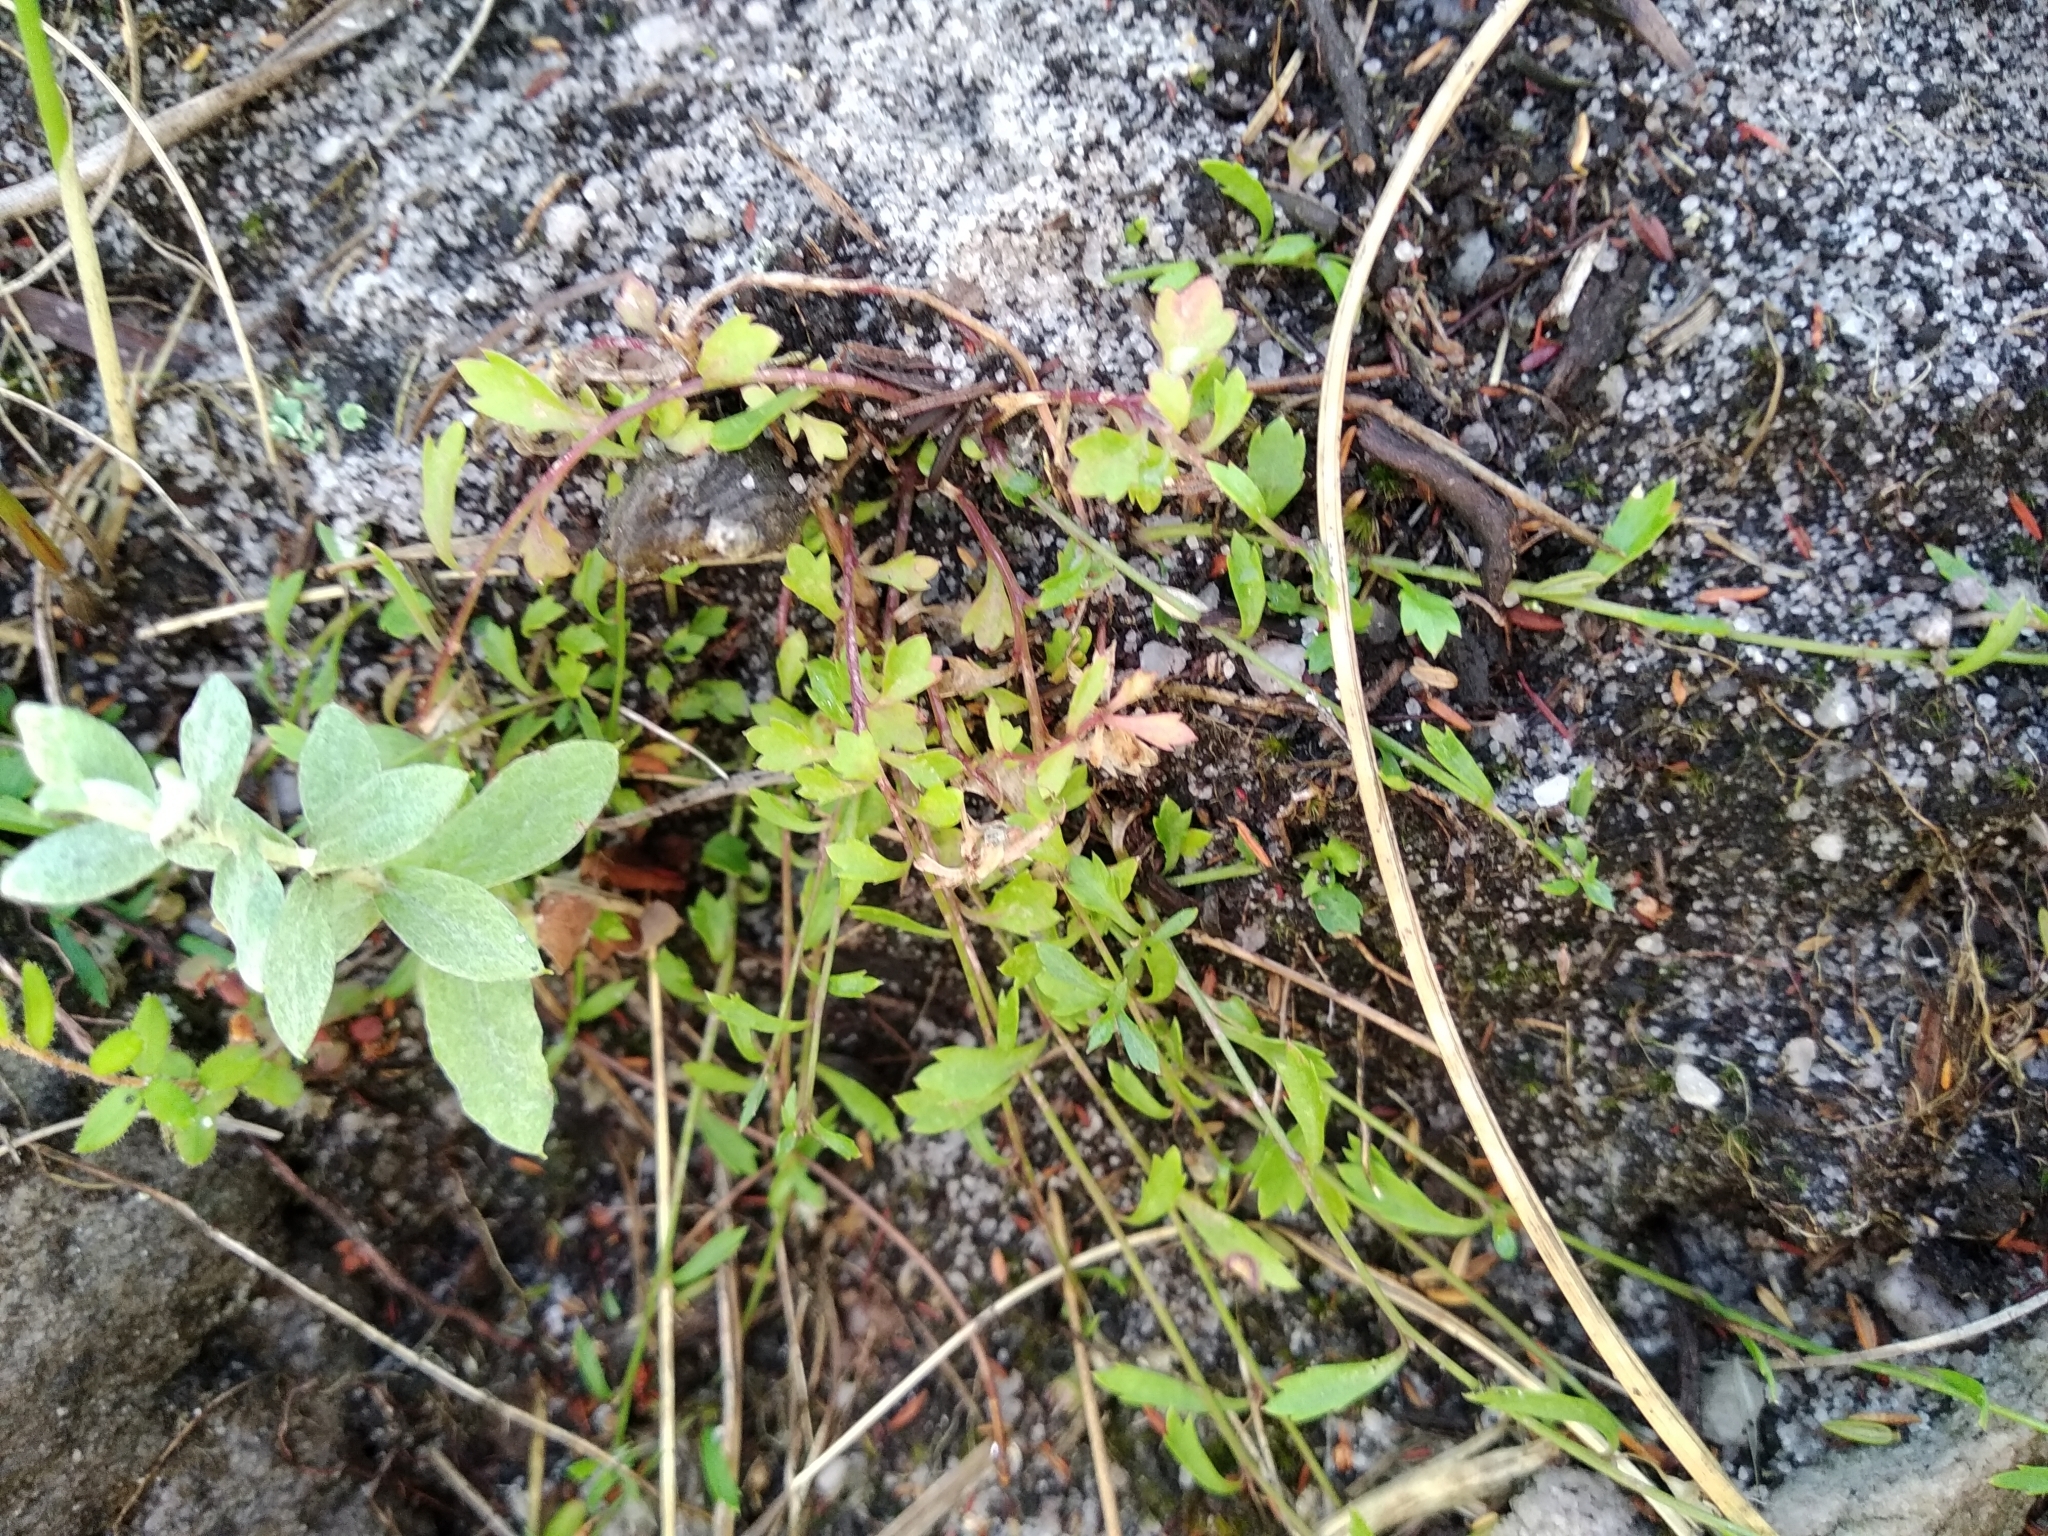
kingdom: Plantae
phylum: Tracheophyta
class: Magnoliopsida
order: Asterales
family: Campanulaceae
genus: Lobelia
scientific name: Lobelia eckloniana
